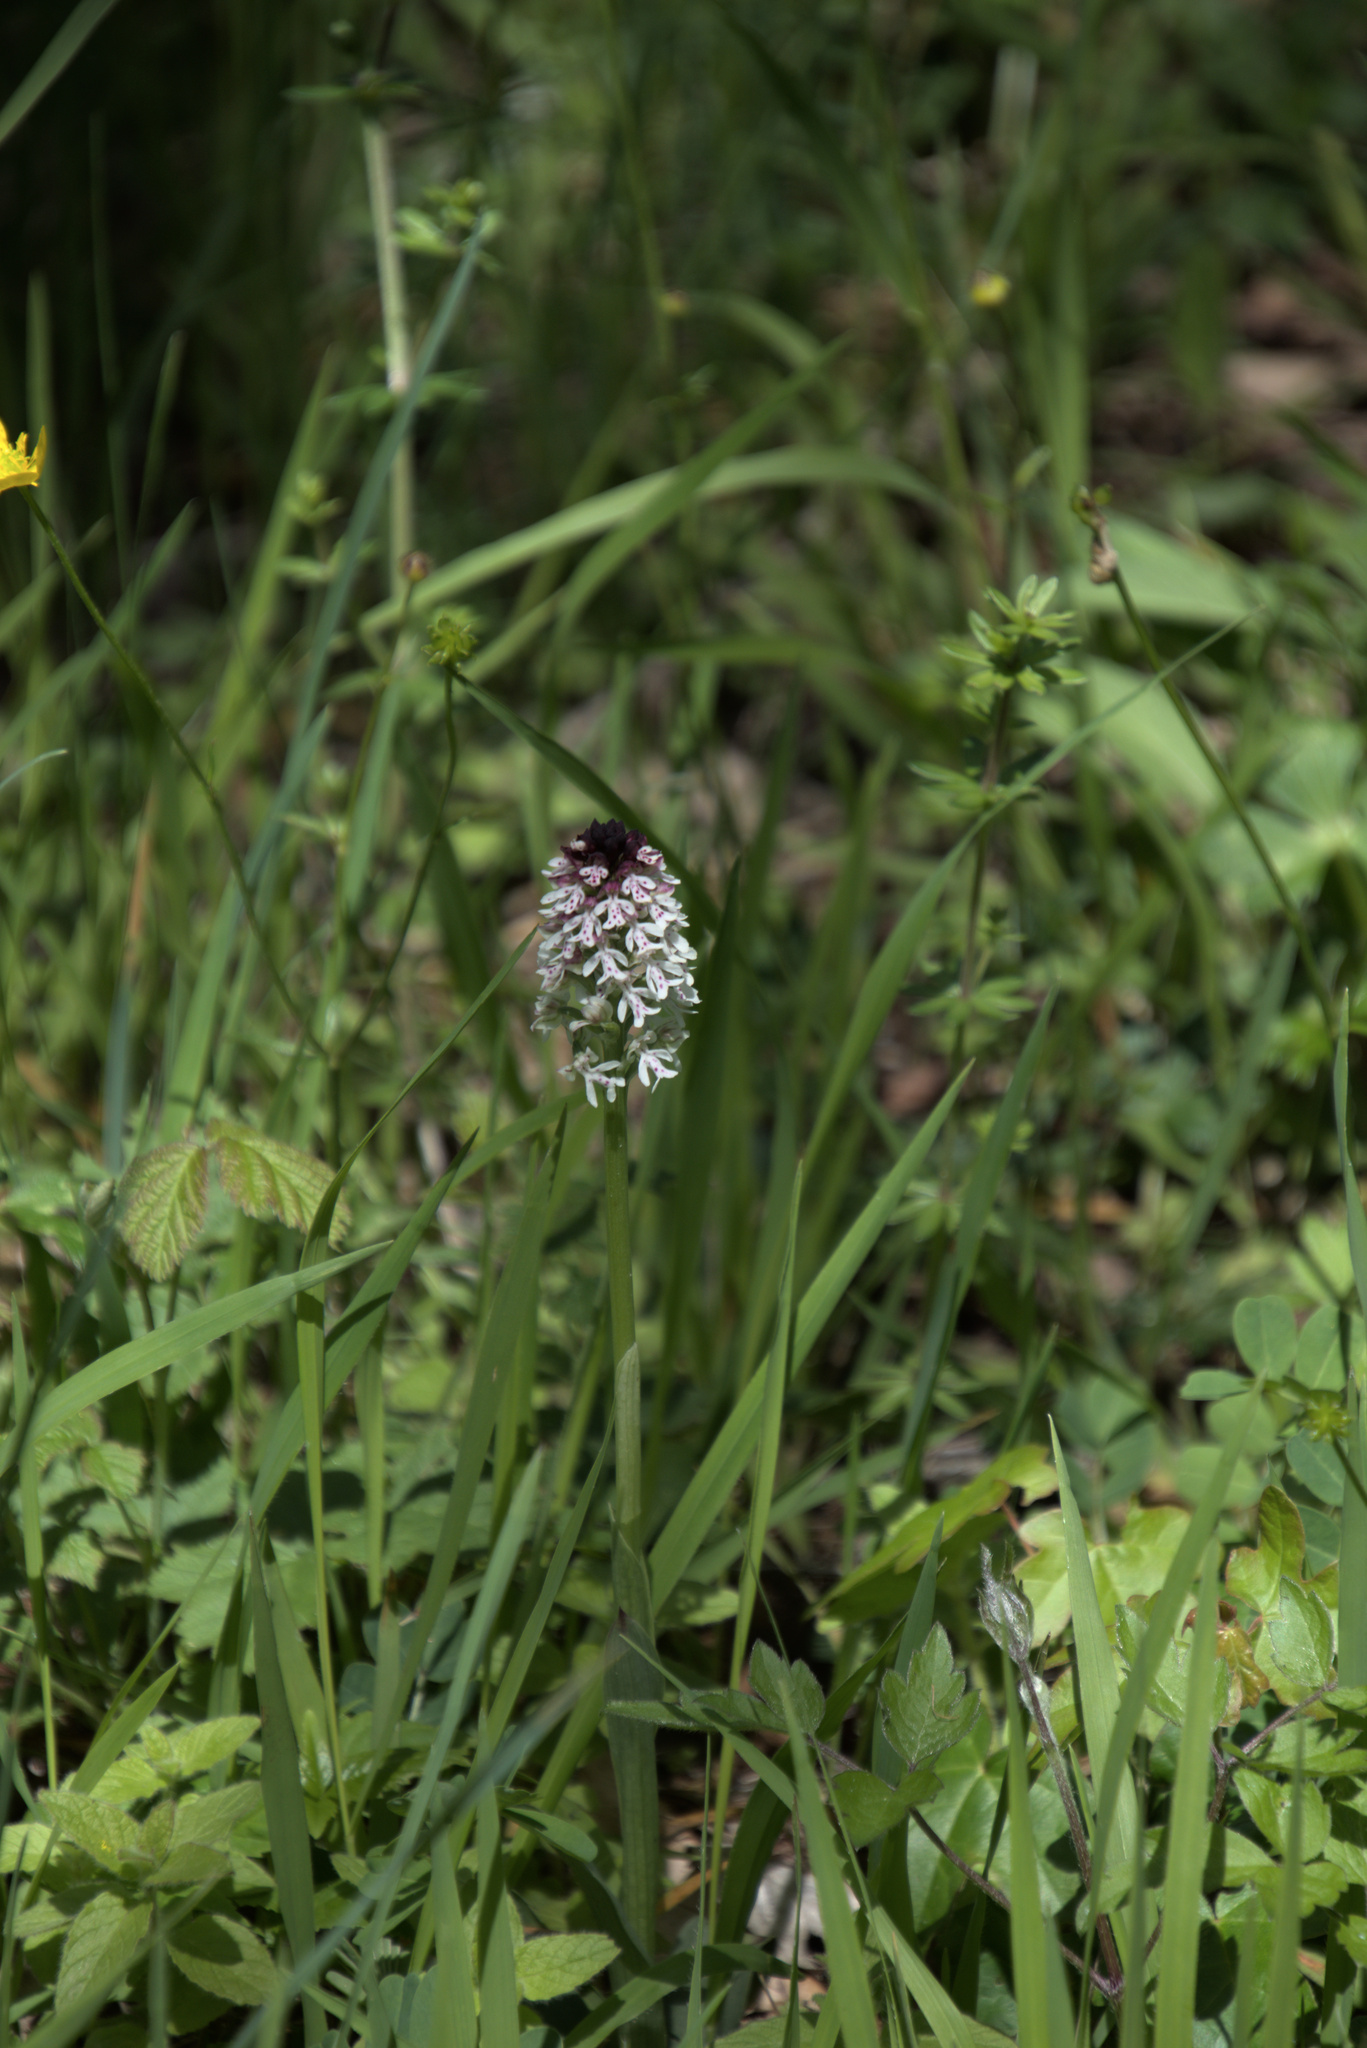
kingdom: Plantae
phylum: Tracheophyta
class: Liliopsida
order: Asparagales
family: Orchidaceae
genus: Neotinea
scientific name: Neotinea ustulata
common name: Burnt orchid
